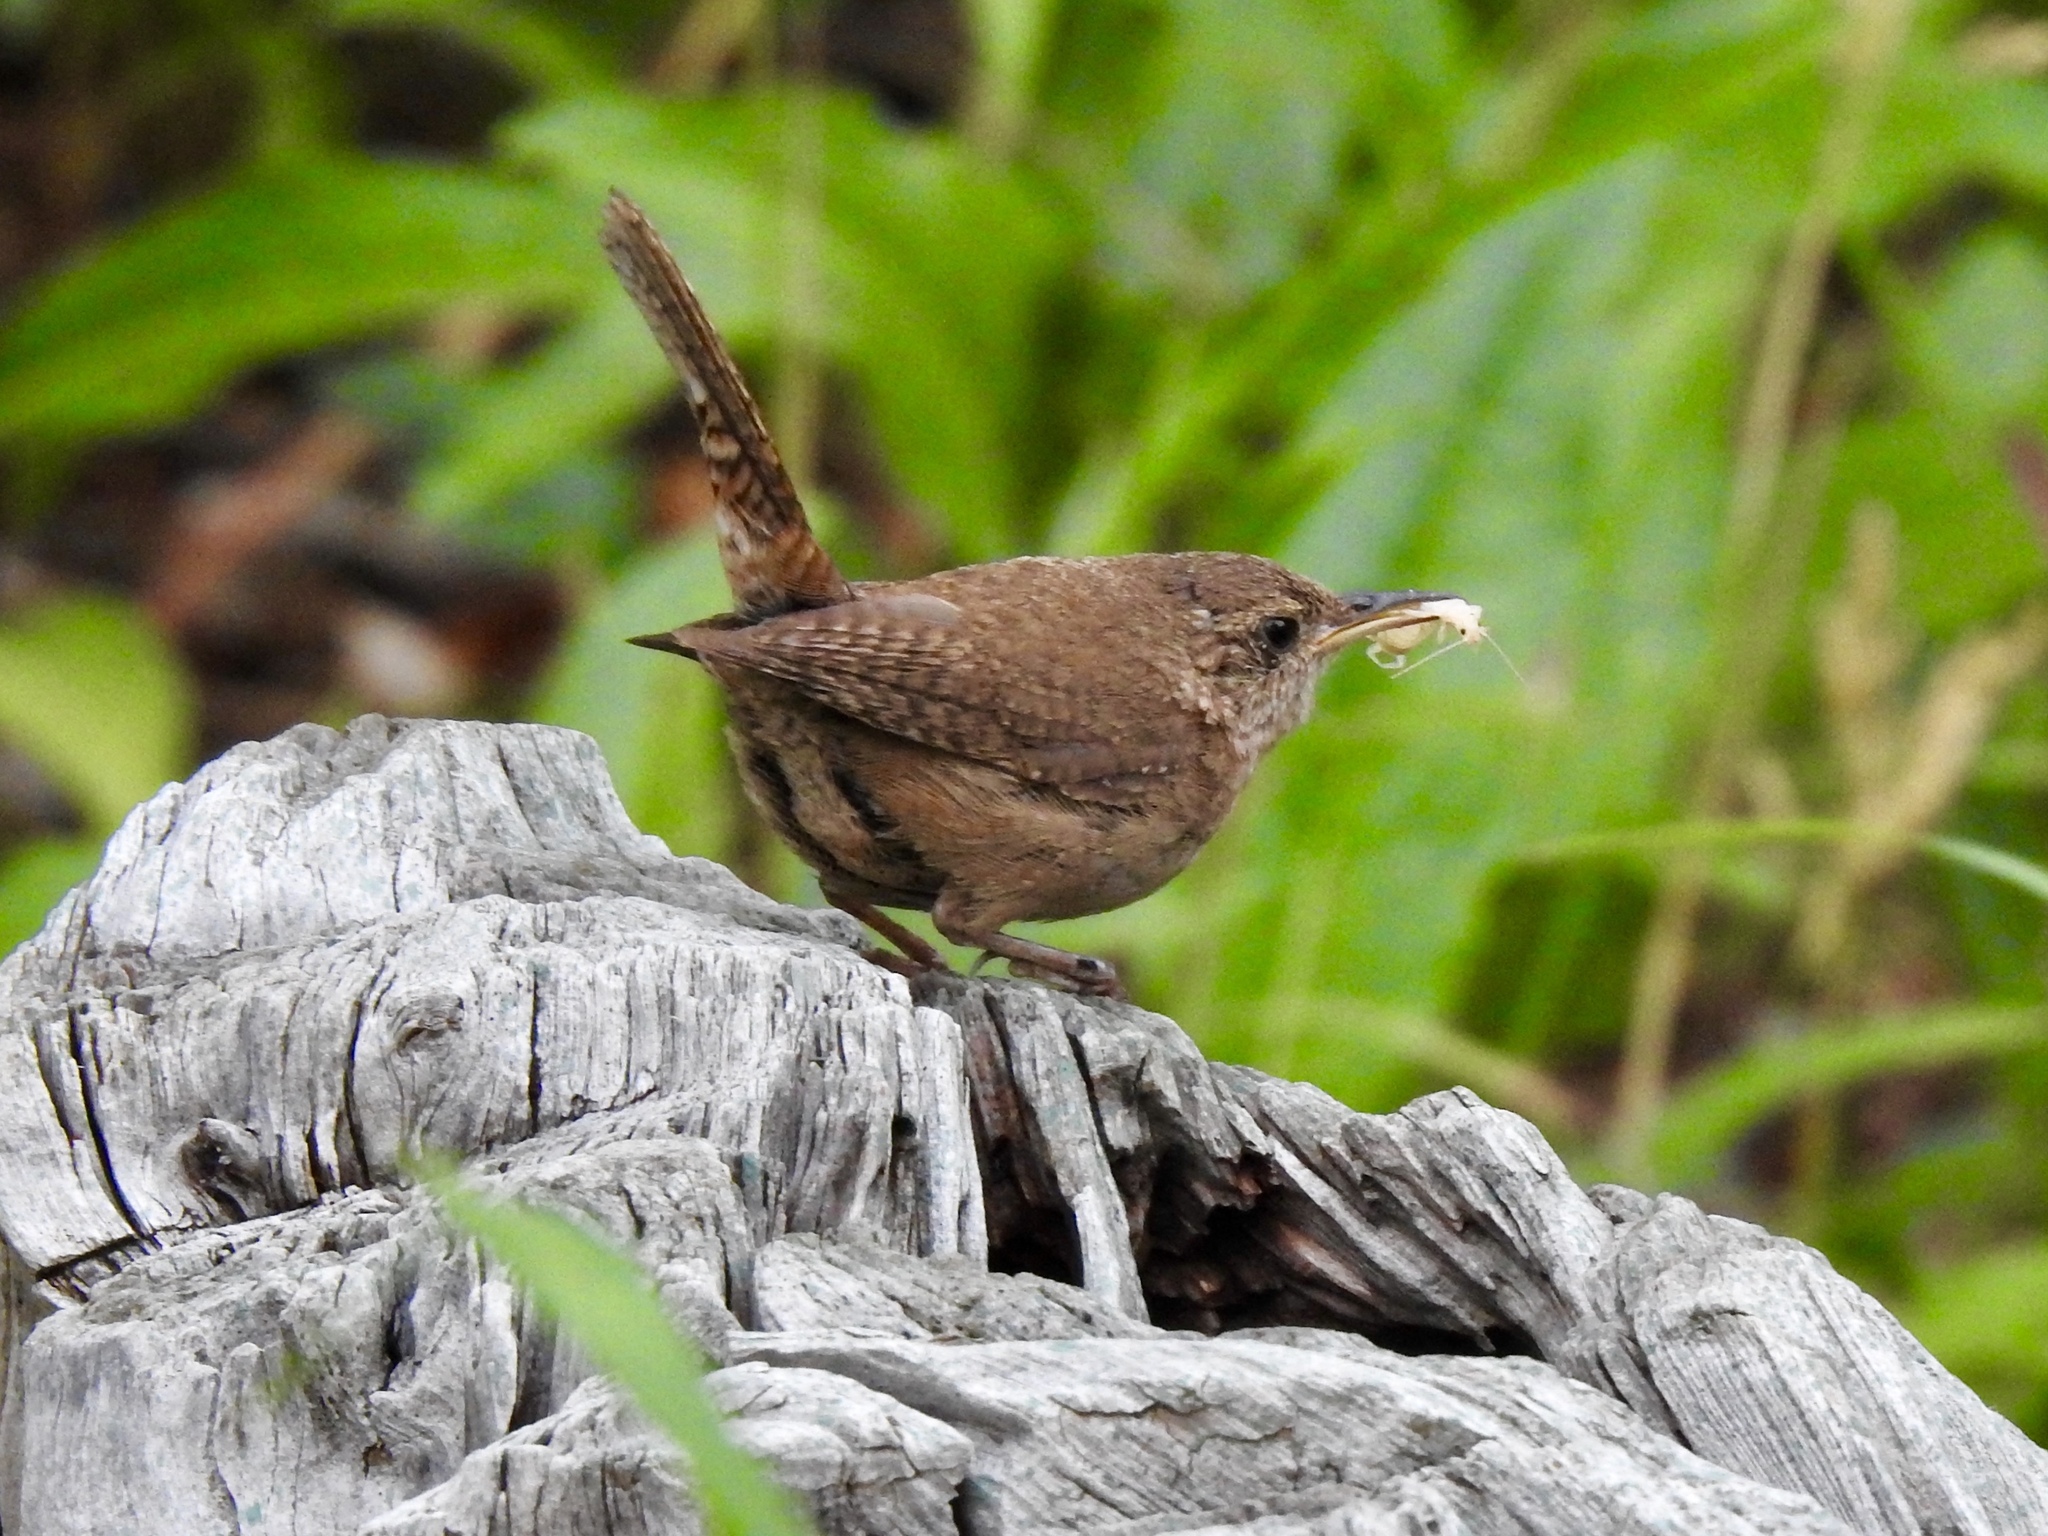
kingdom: Animalia
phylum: Chordata
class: Aves
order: Passeriformes
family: Troglodytidae
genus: Troglodytes
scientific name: Troglodytes aedon
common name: House wren
